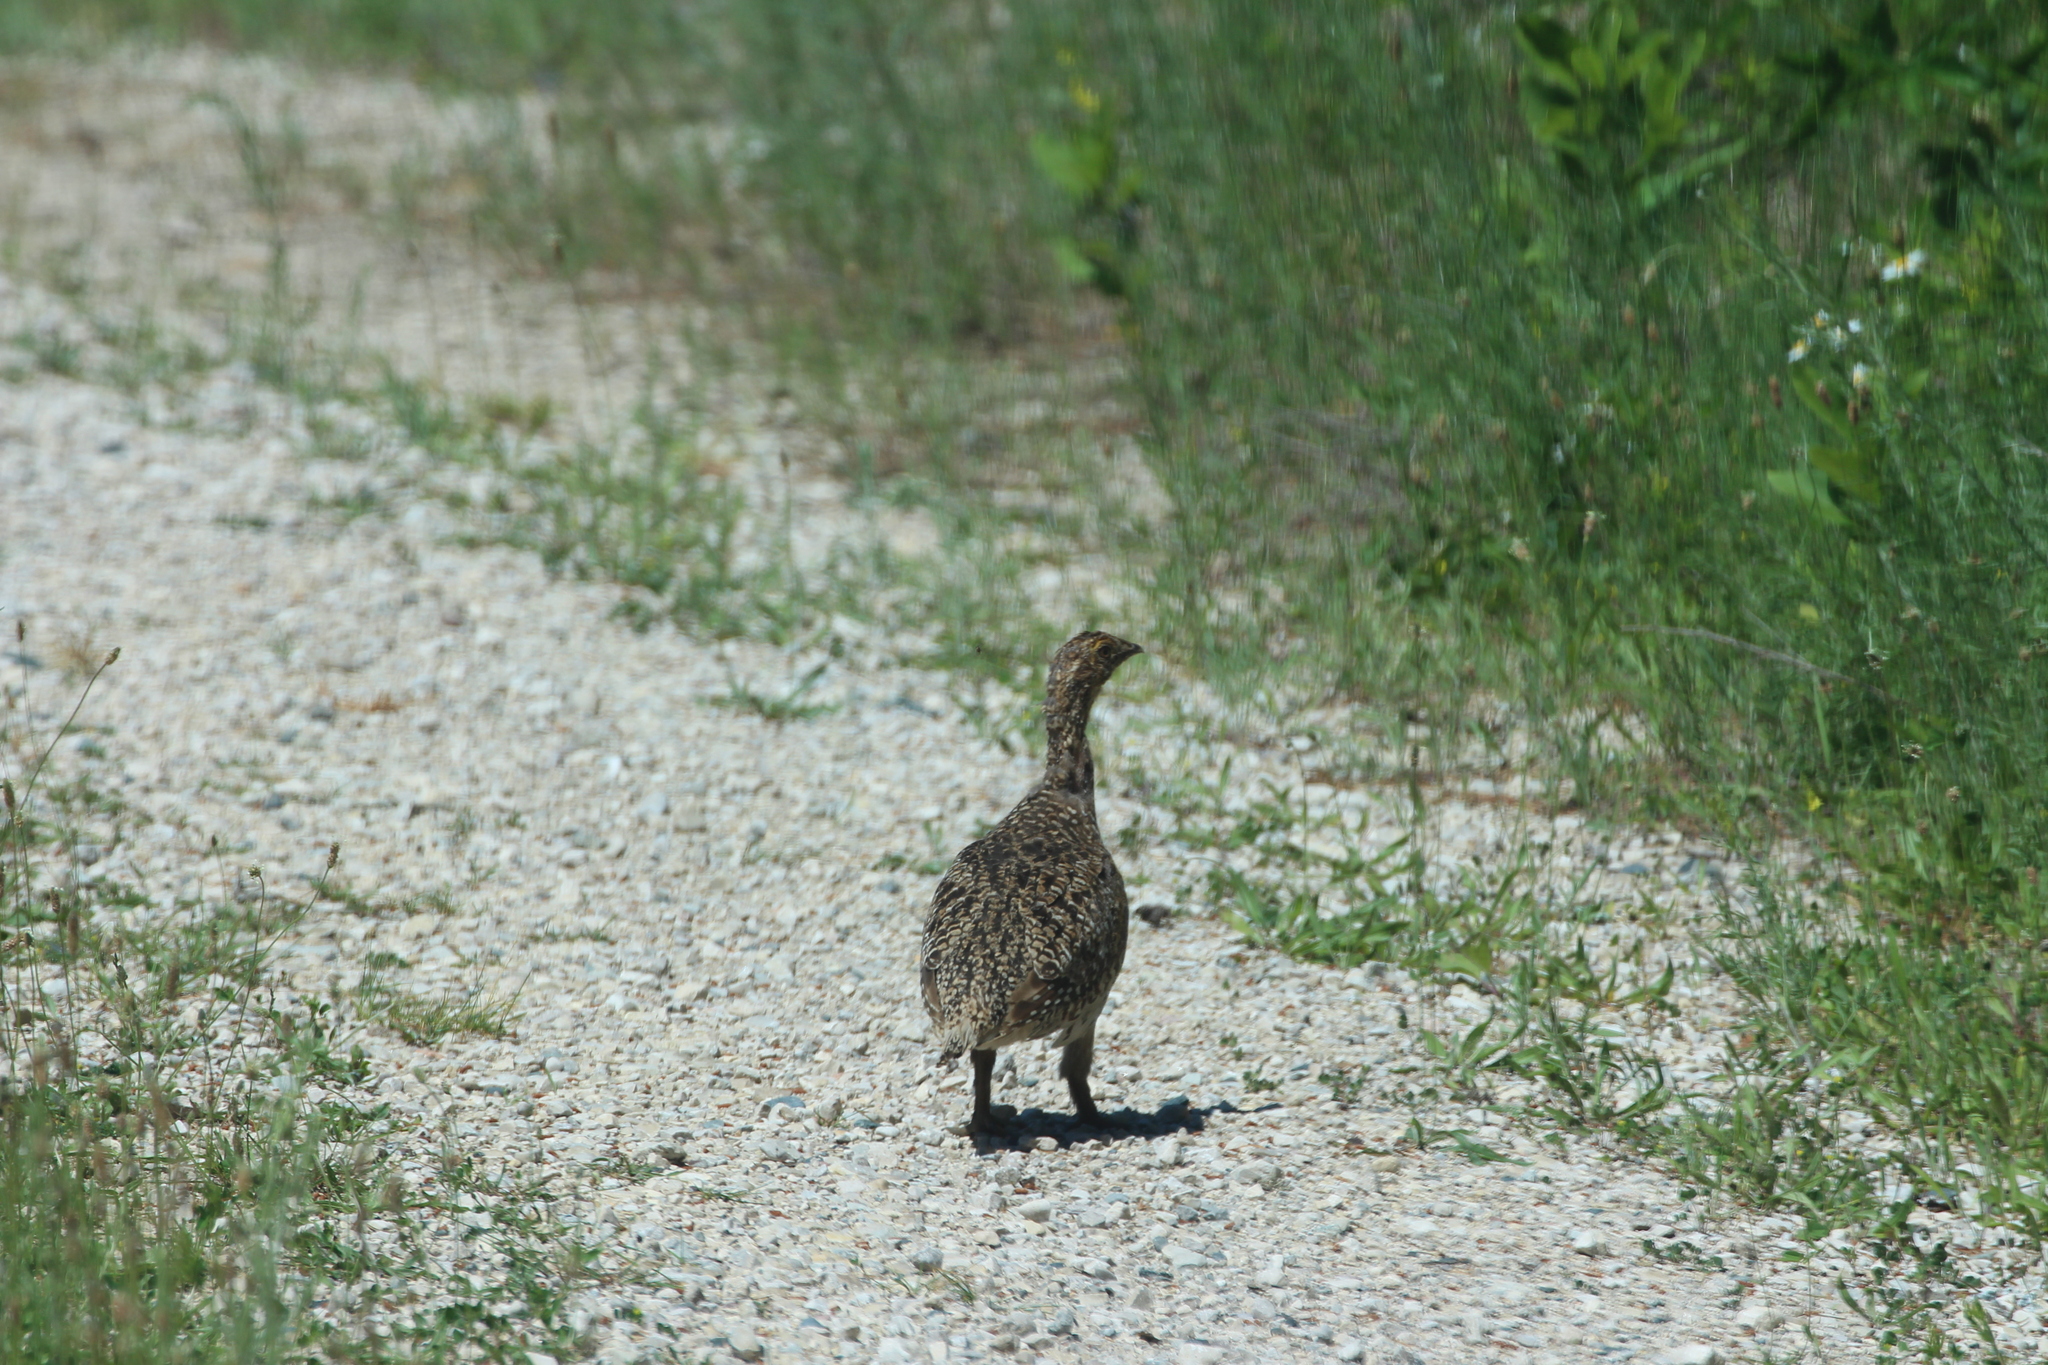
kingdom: Animalia
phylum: Chordata
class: Aves
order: Galliformes
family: Phasianidae
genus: Tympanuchus
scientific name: Tympanuchus phasianellus
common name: Sharp-tailed grouse
